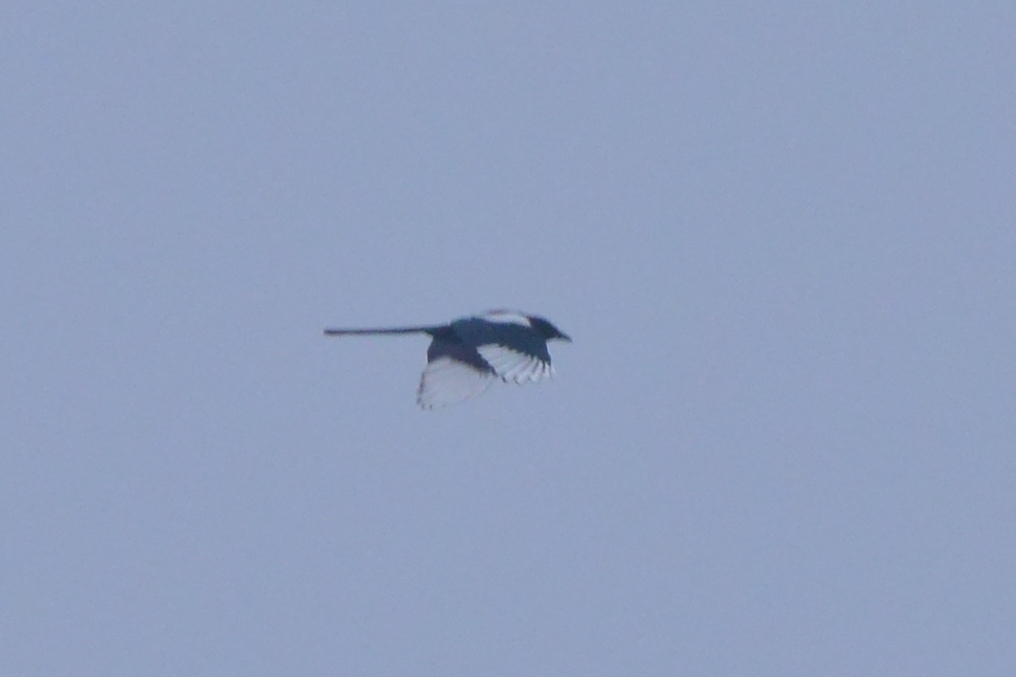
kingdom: Animalia
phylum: Chordata
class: Aves
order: Passeriformes
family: Corvidae
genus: Pica
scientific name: Pica pica
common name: Eurasian magpie
